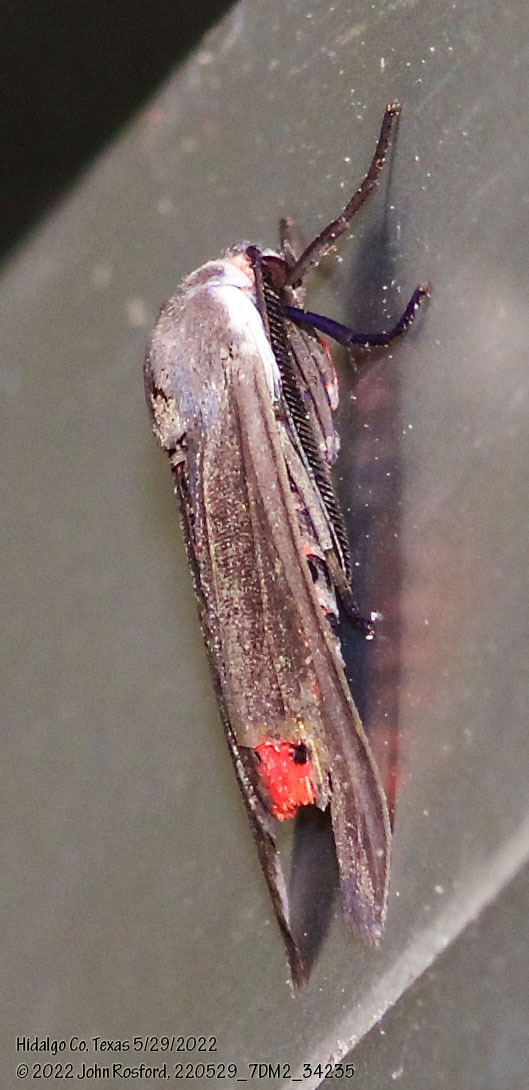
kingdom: Animalia
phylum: Arthropoda
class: Insecta
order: Lepidoptera
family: Erebidae
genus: Euchaetes
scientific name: Euchaetes bolteri
